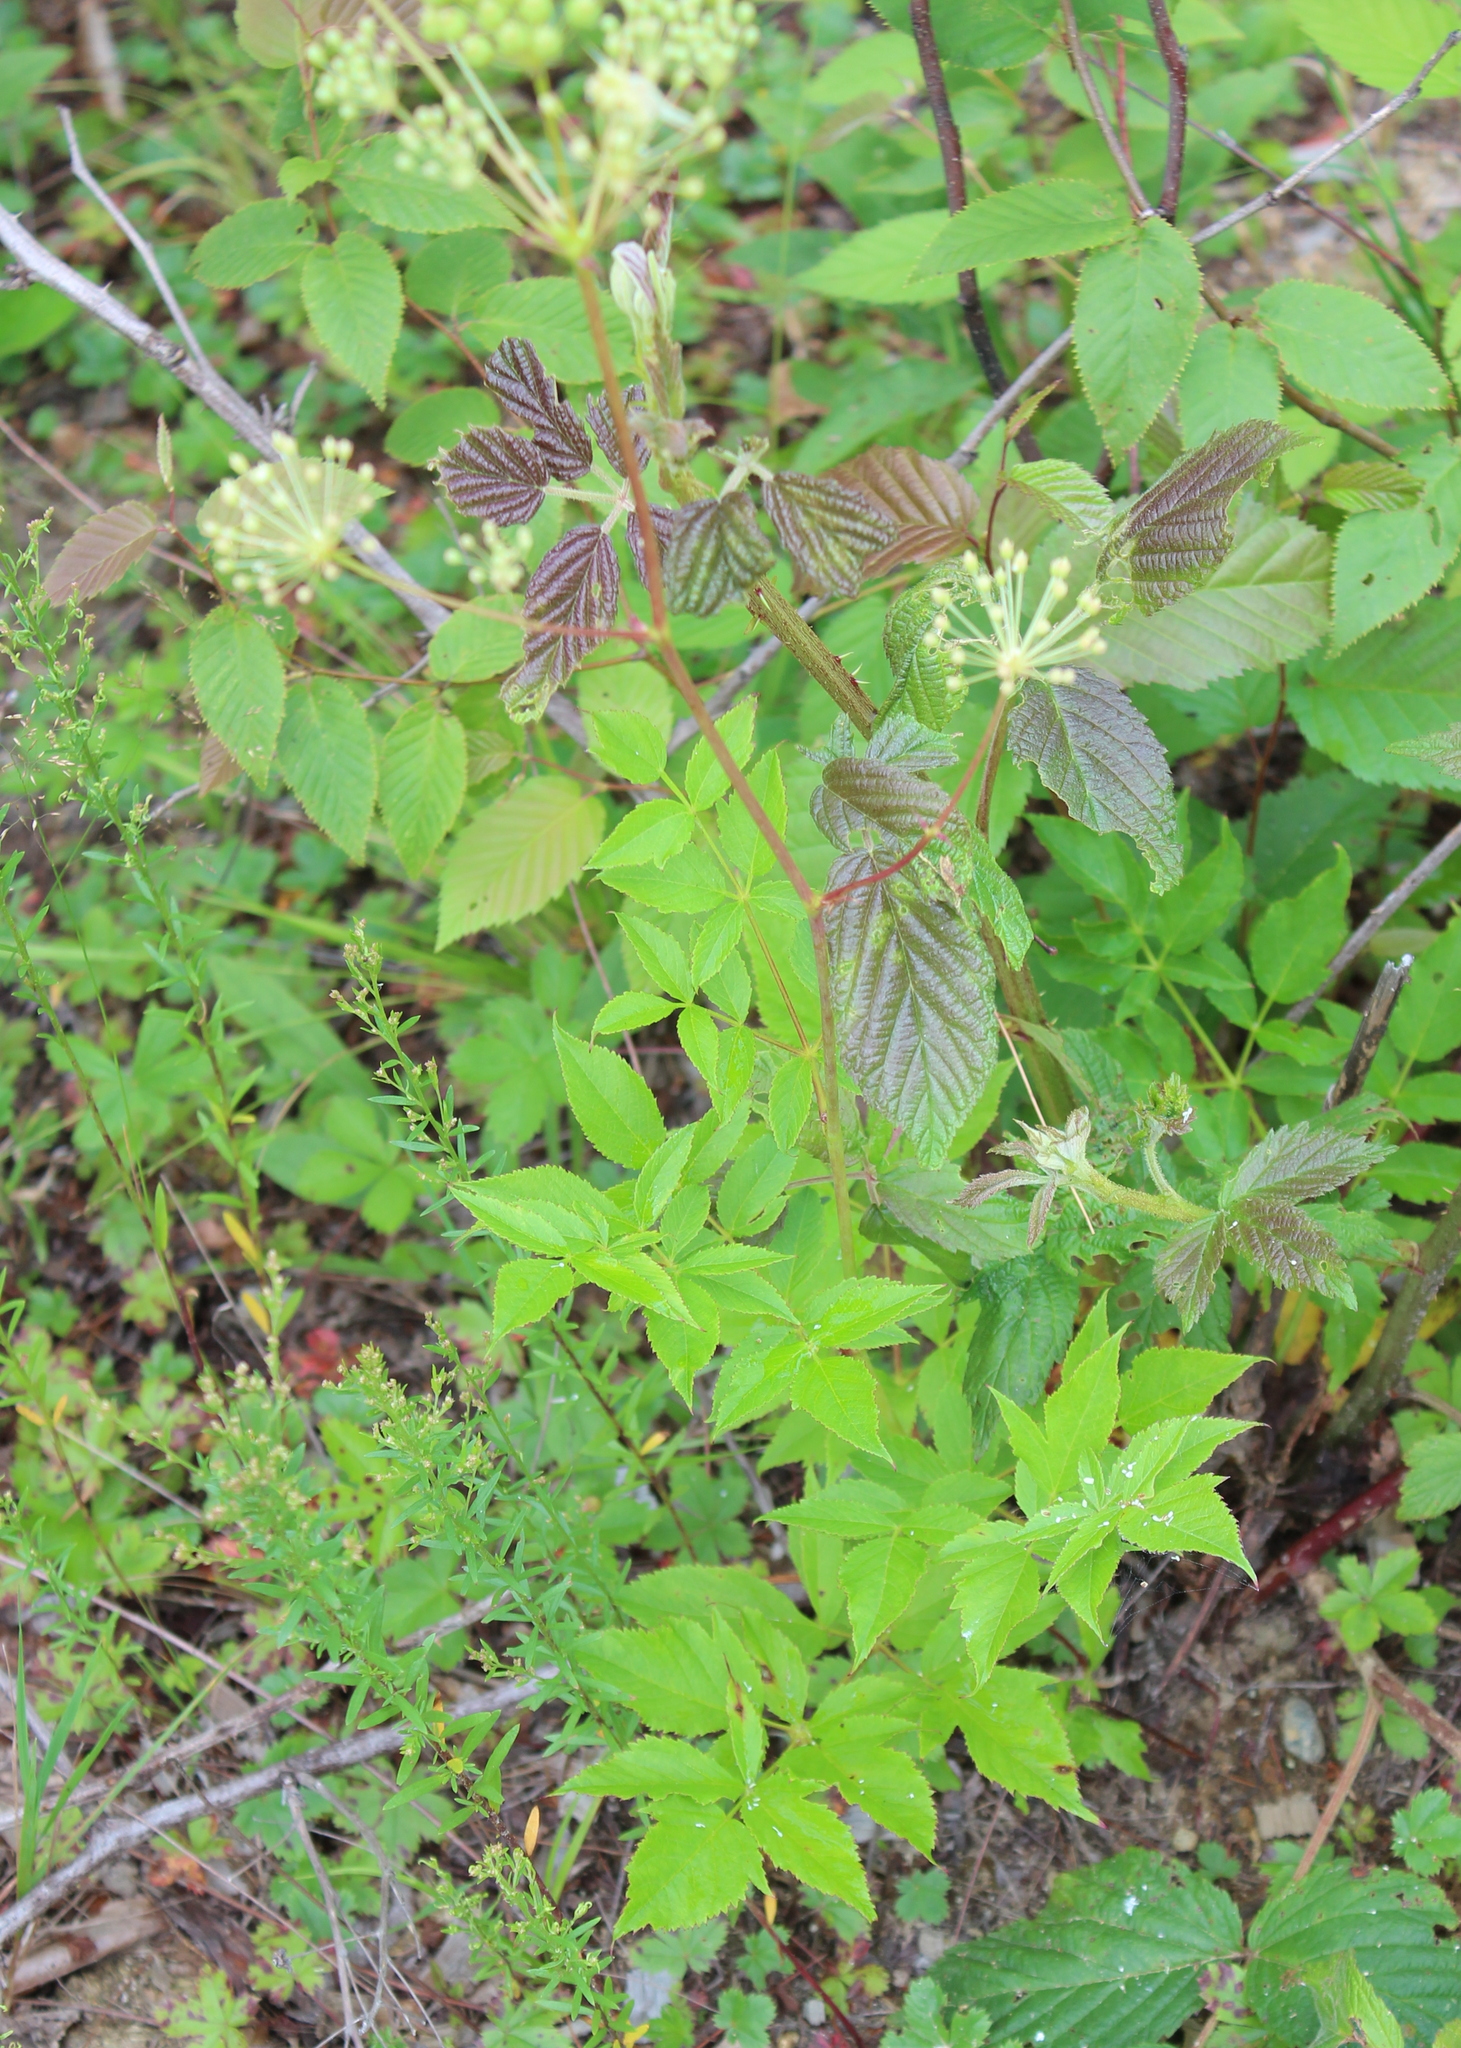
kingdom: Plantae
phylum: Tracheophyta
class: Magnoliopsida
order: Apiales
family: Araliaceae
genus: Aralia
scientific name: Aralia hispida
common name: Bristly sarsaparilla
